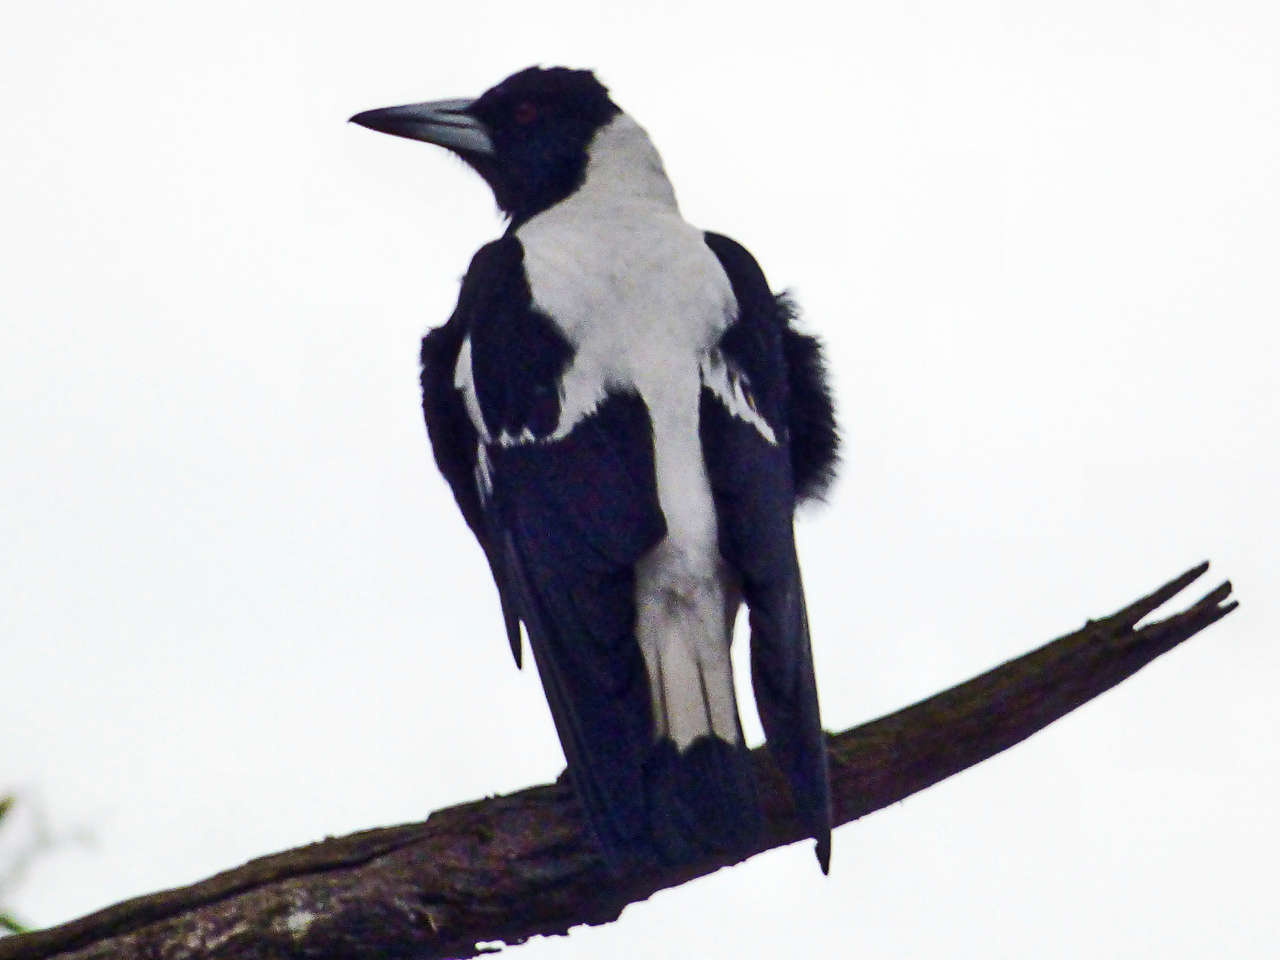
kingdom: Animalia
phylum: Chordata
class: Aves
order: Passeriformes
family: Cracticidae
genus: Gymnorhina
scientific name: Gymnorhina tibicen
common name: Australian magpie
